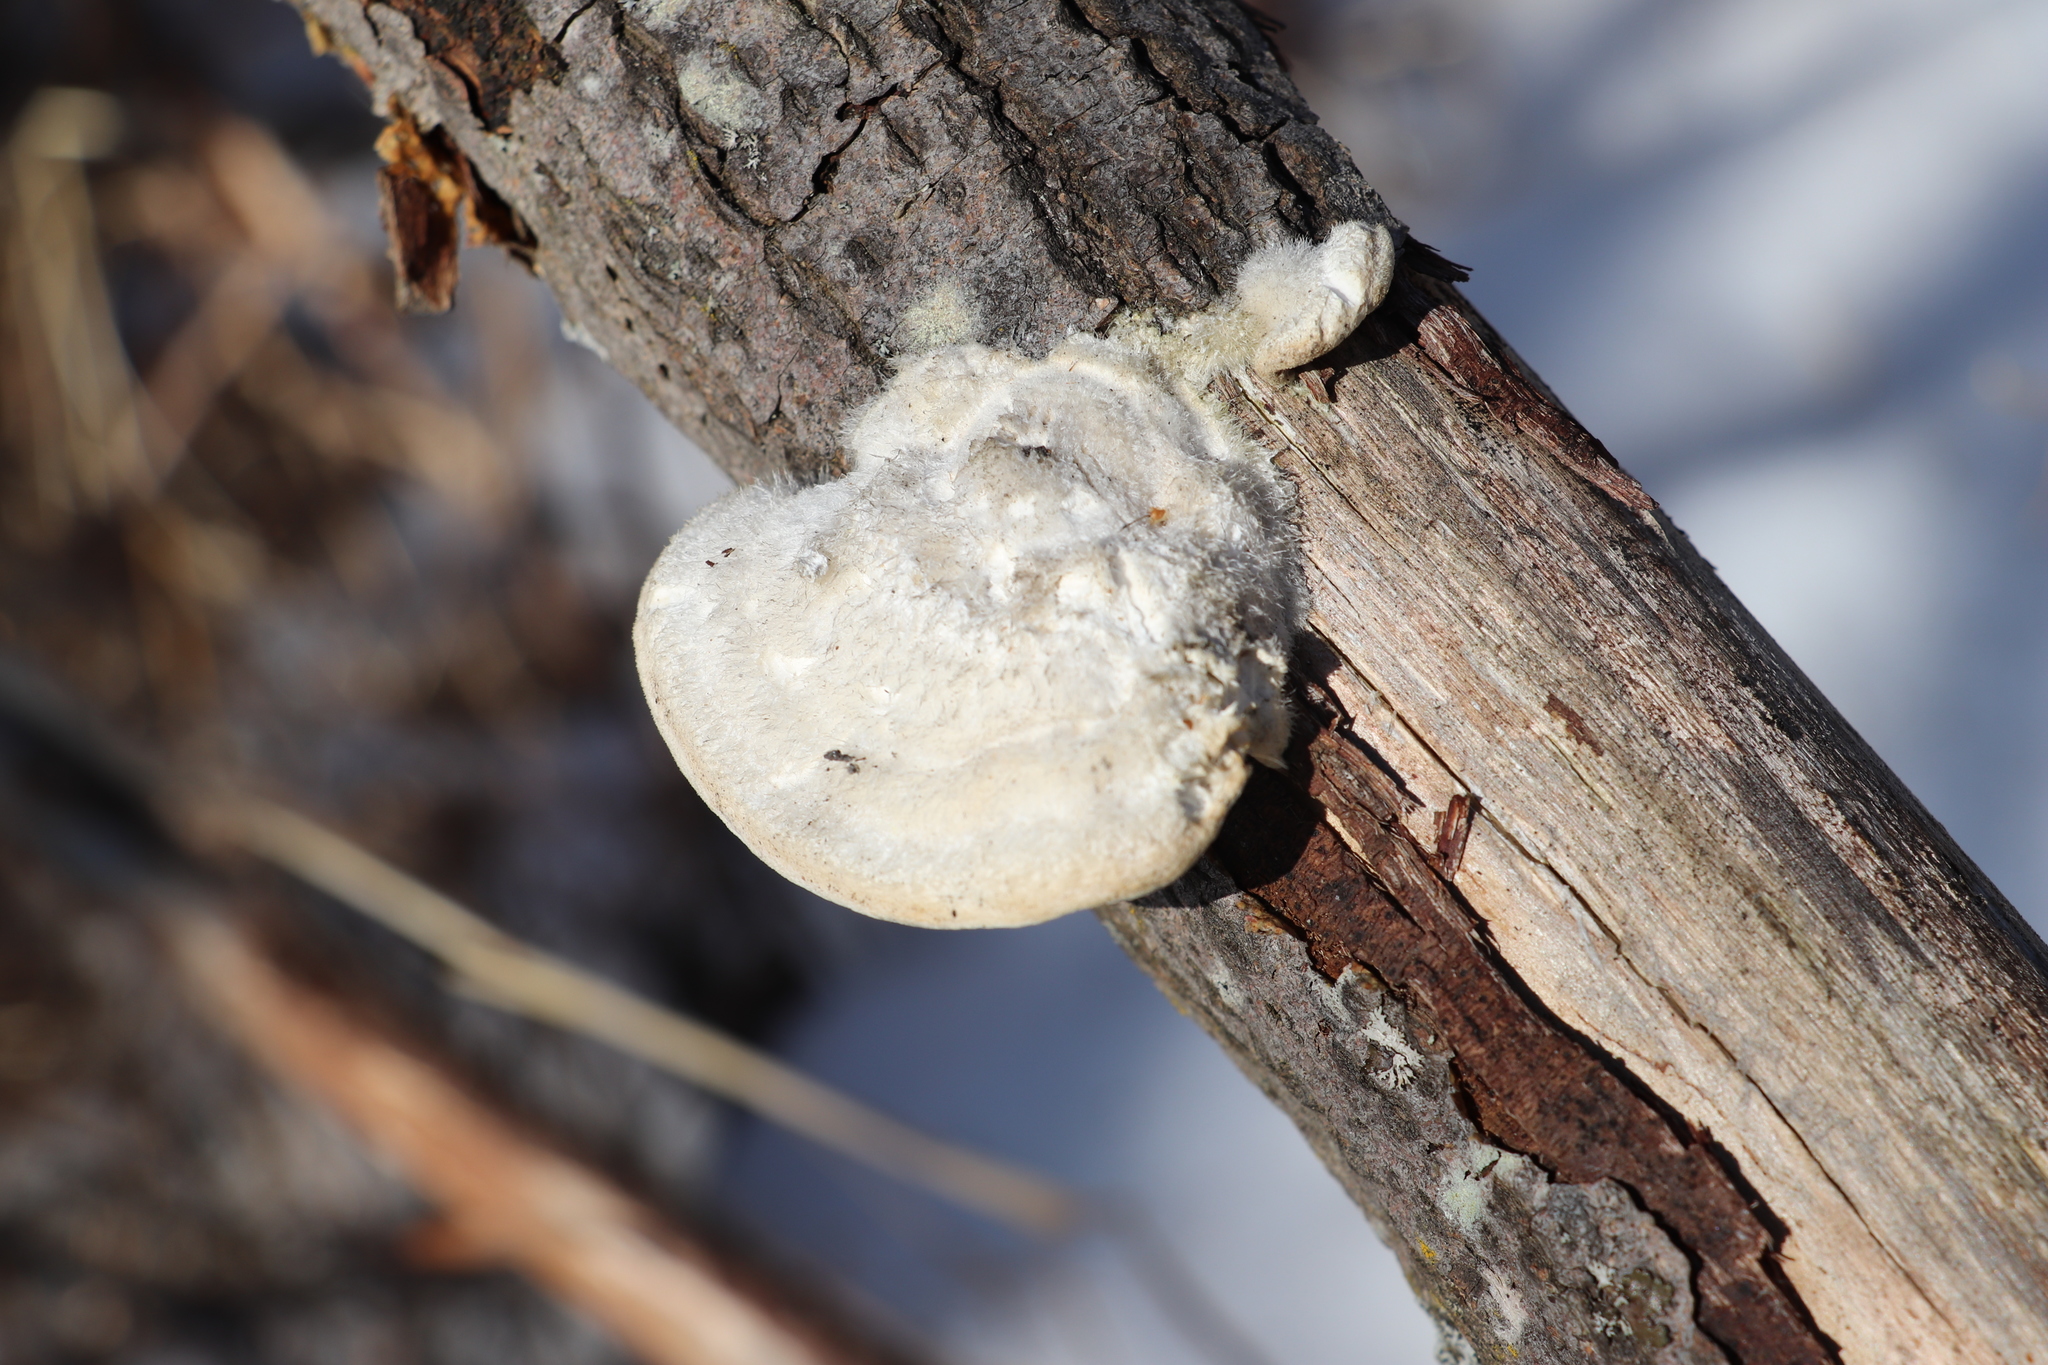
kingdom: Fungi
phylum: Basidiomycota
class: Agaricomycetes
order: Polyporales
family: Polyporaceae
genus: Trametes
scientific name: Trametes hirsuta
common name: Hairy bracket
